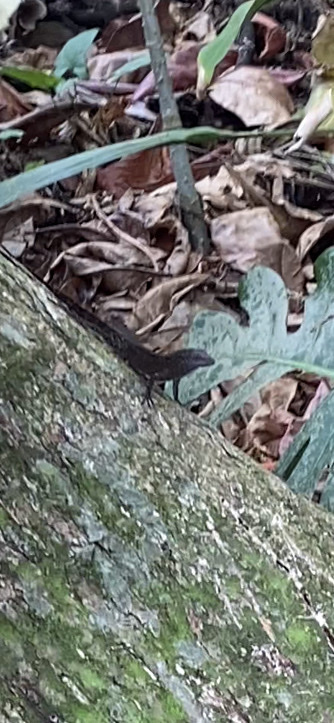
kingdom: Animalia
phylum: Chordata
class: Squamata
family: Dactyloidae
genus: Anolis
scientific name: Anolis cristatellus
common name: Crested anole
